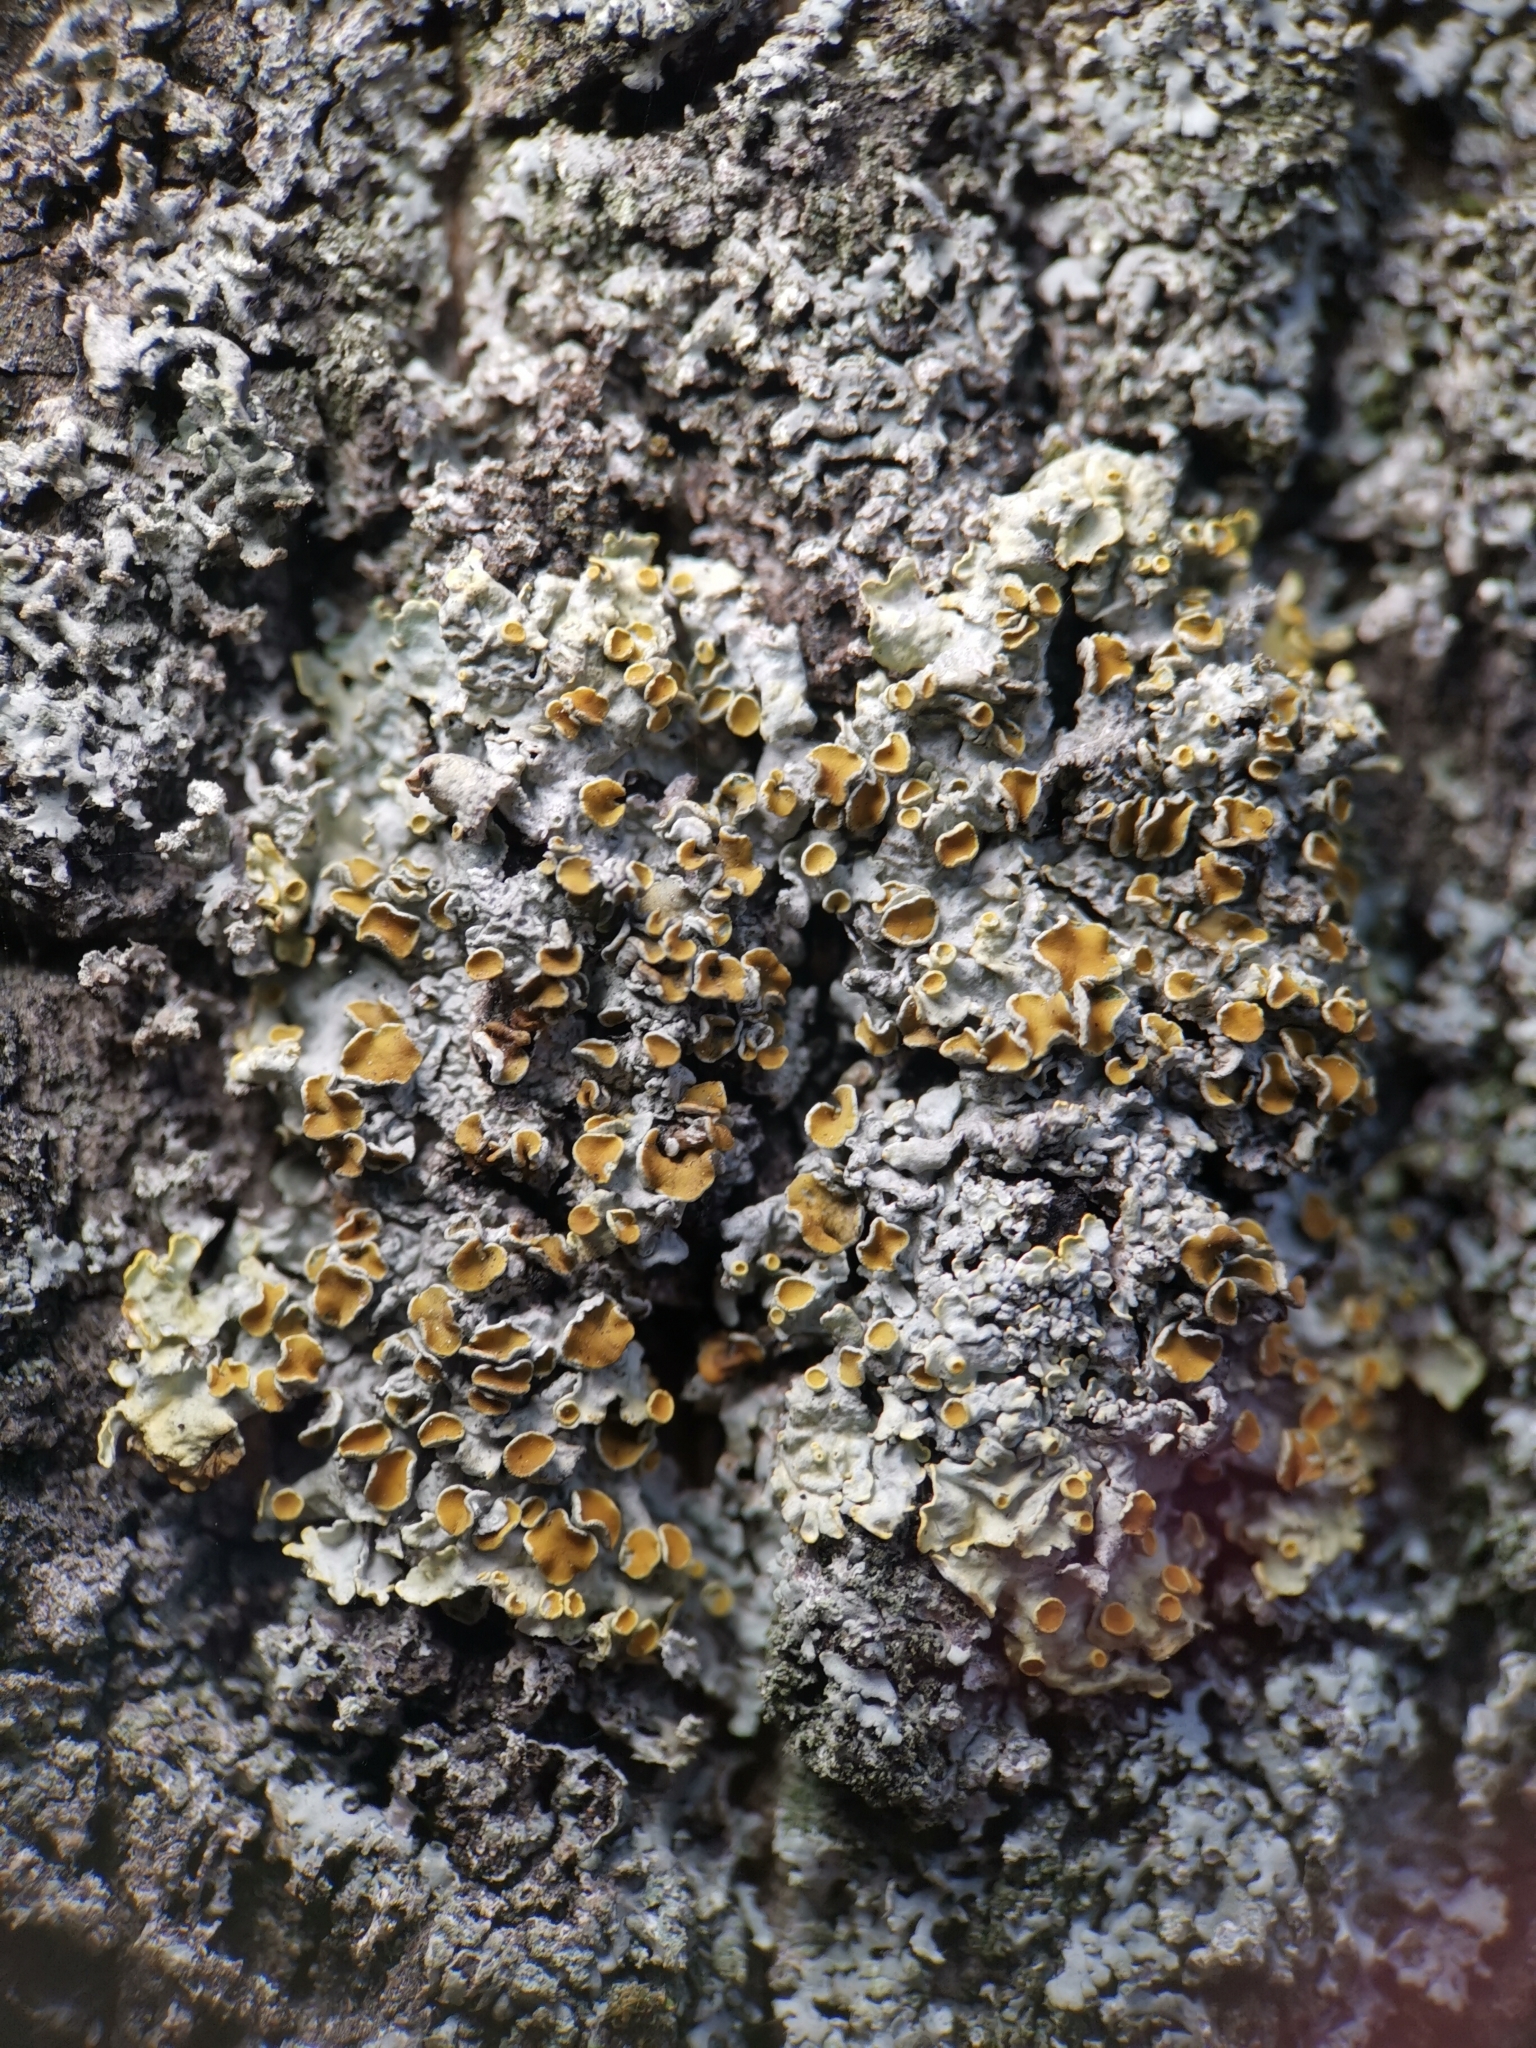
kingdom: Fungi
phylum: Ascomycota
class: Lecanoromycetes
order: Teloschistales
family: Teloschistaceae
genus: Xanthoria
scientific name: Xanthoria parietina
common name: Common orange lichen
